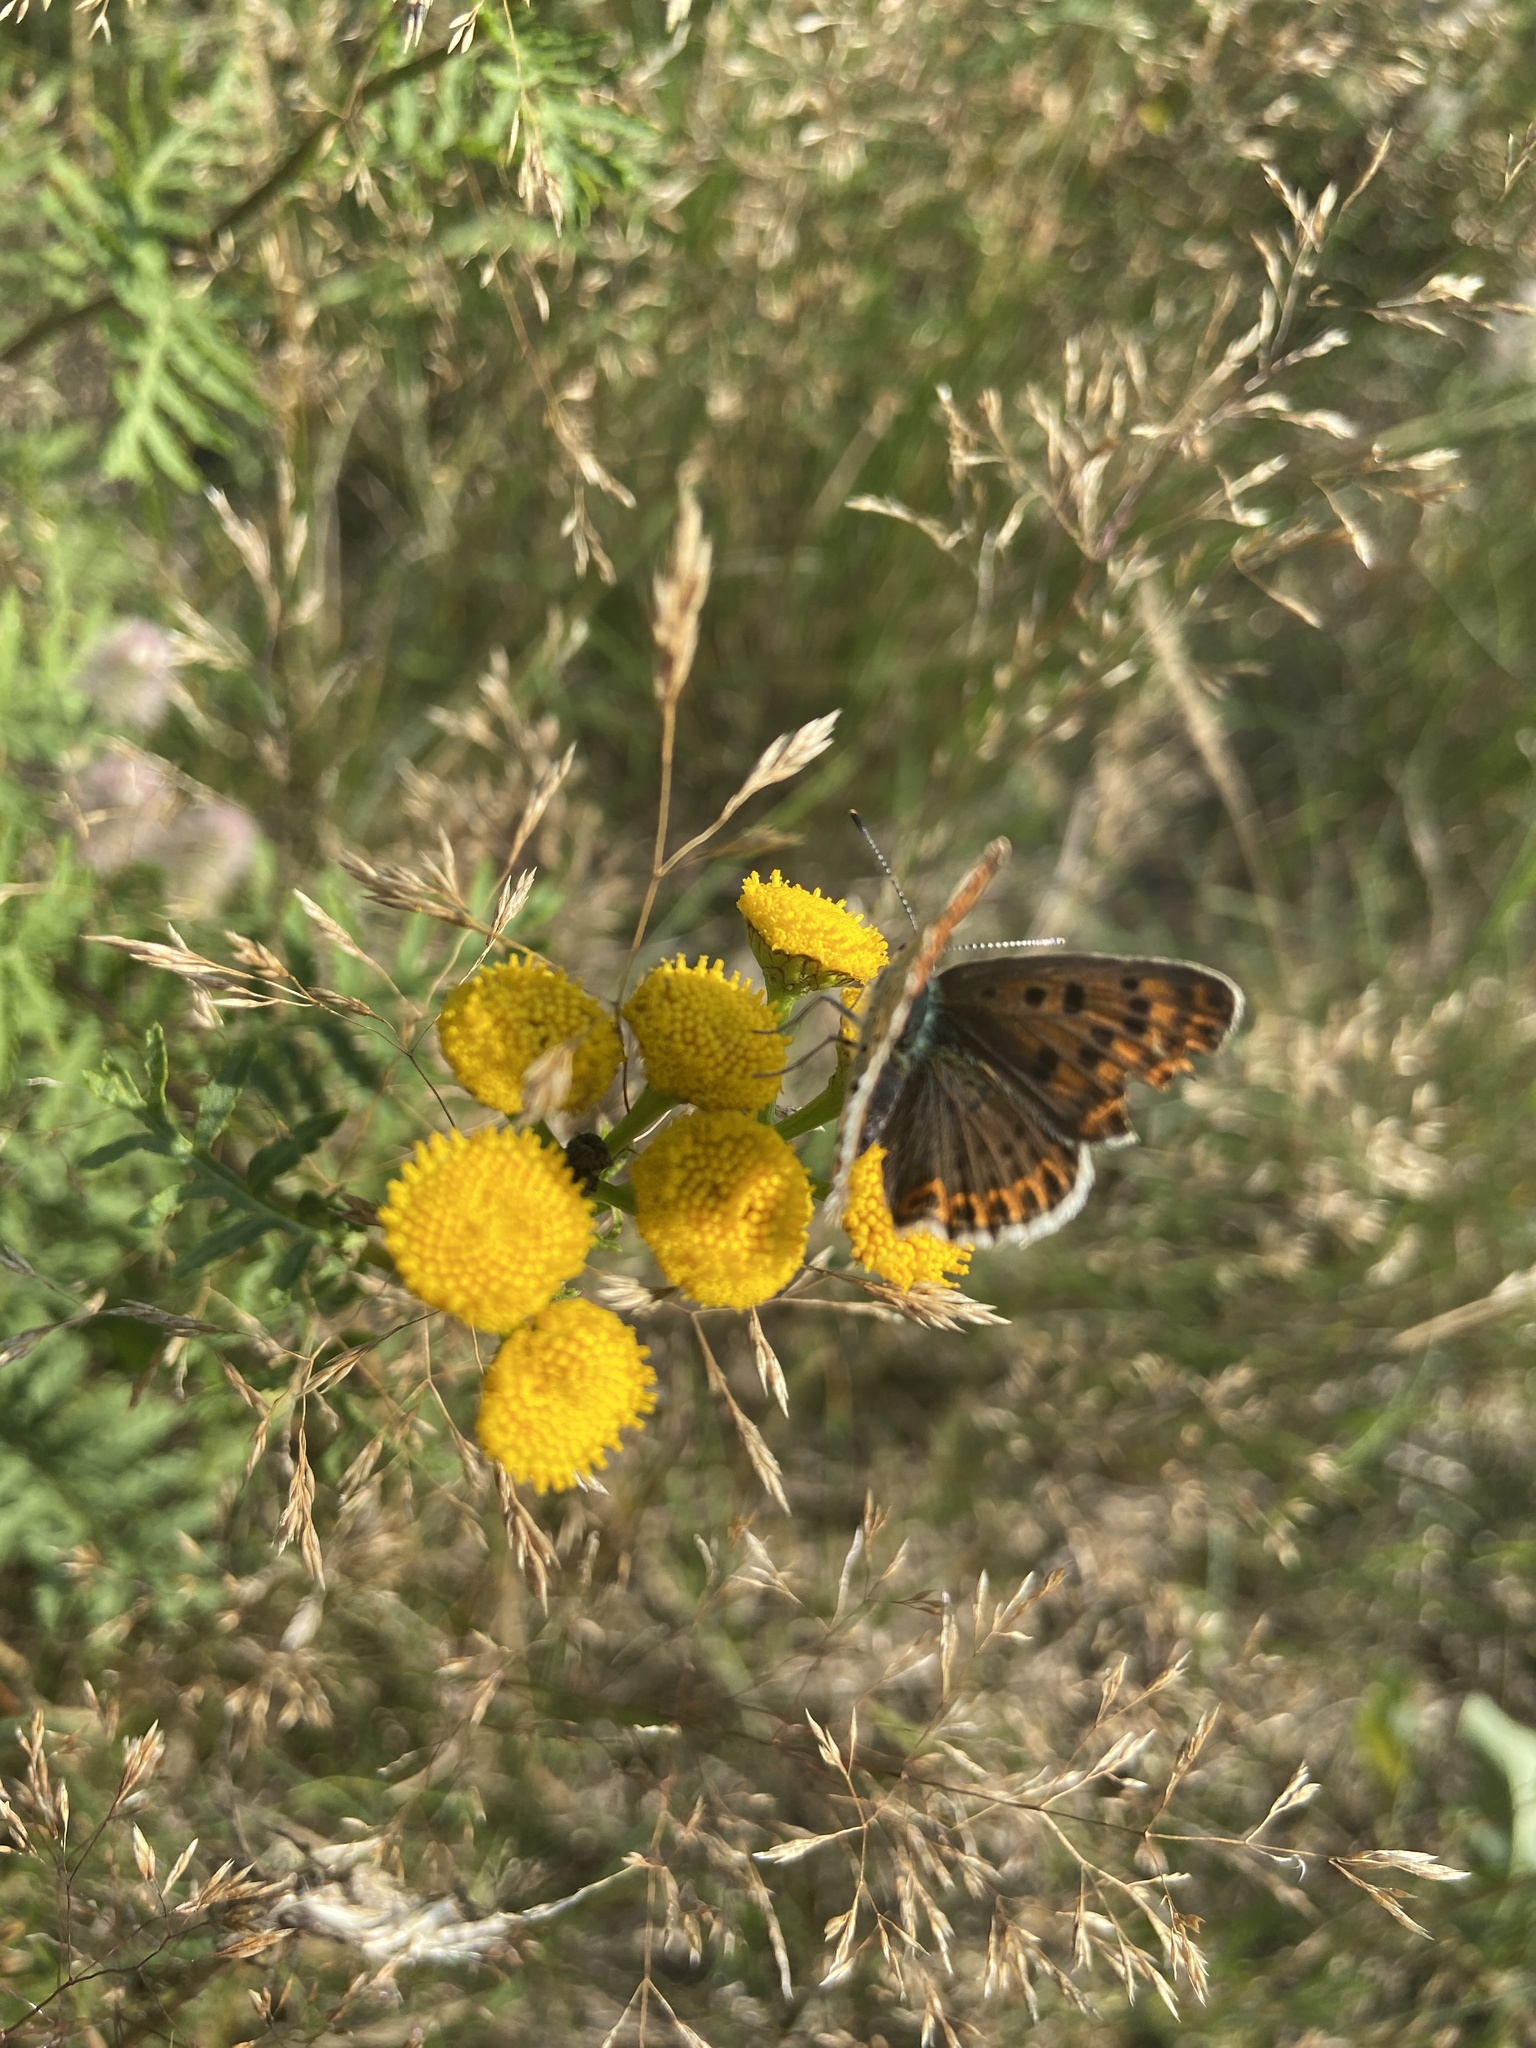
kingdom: Animalia
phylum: Arthropoda
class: Insecta
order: Lepidoptera
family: Lycaenidae
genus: Loweia
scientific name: Loweia tityrus
